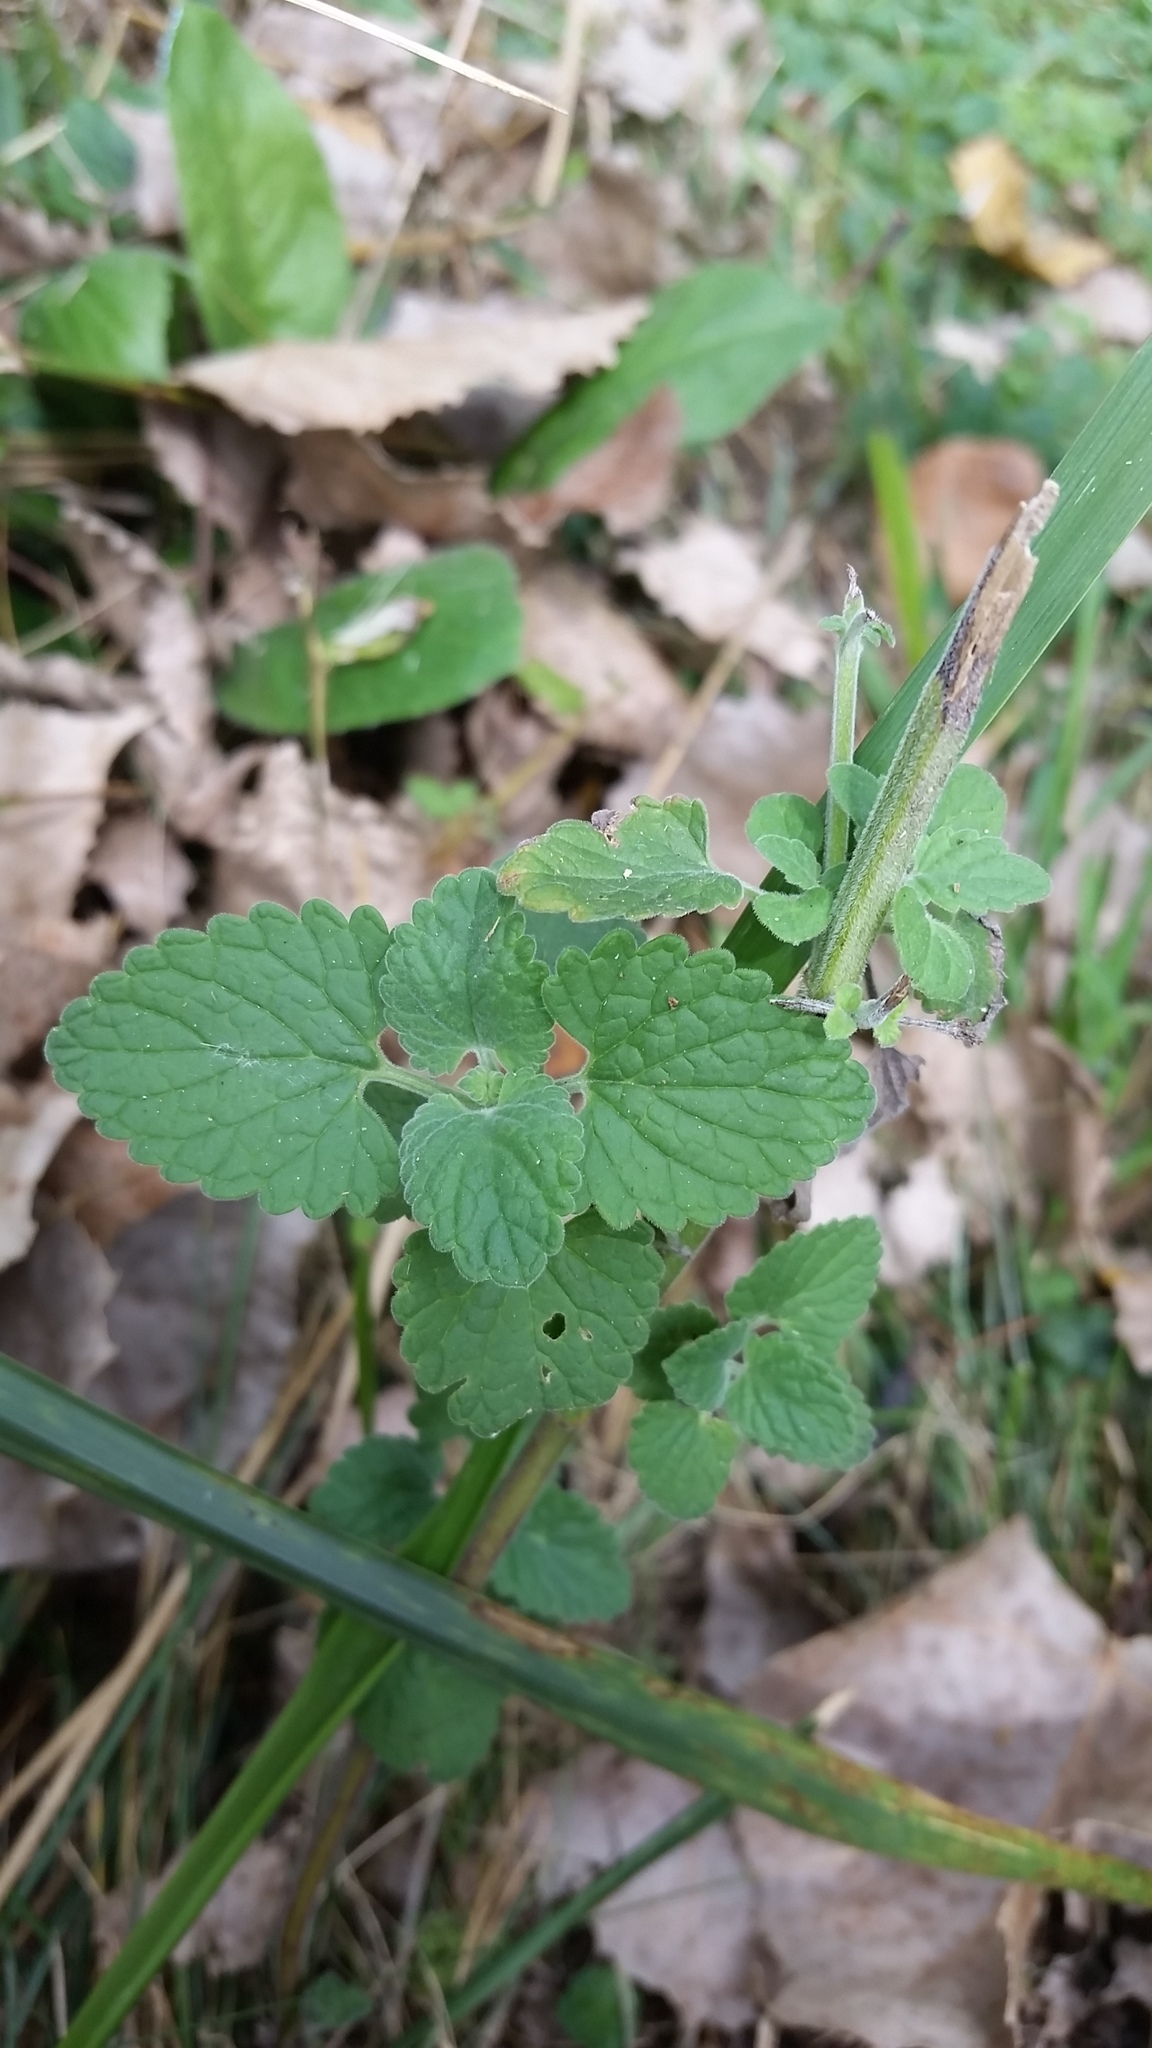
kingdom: Plantae
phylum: Tracheophyta
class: Magnoliopsida
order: Lamiales
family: Lamiaceae
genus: Nepeta
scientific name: Nepeta cataria
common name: Catnip
